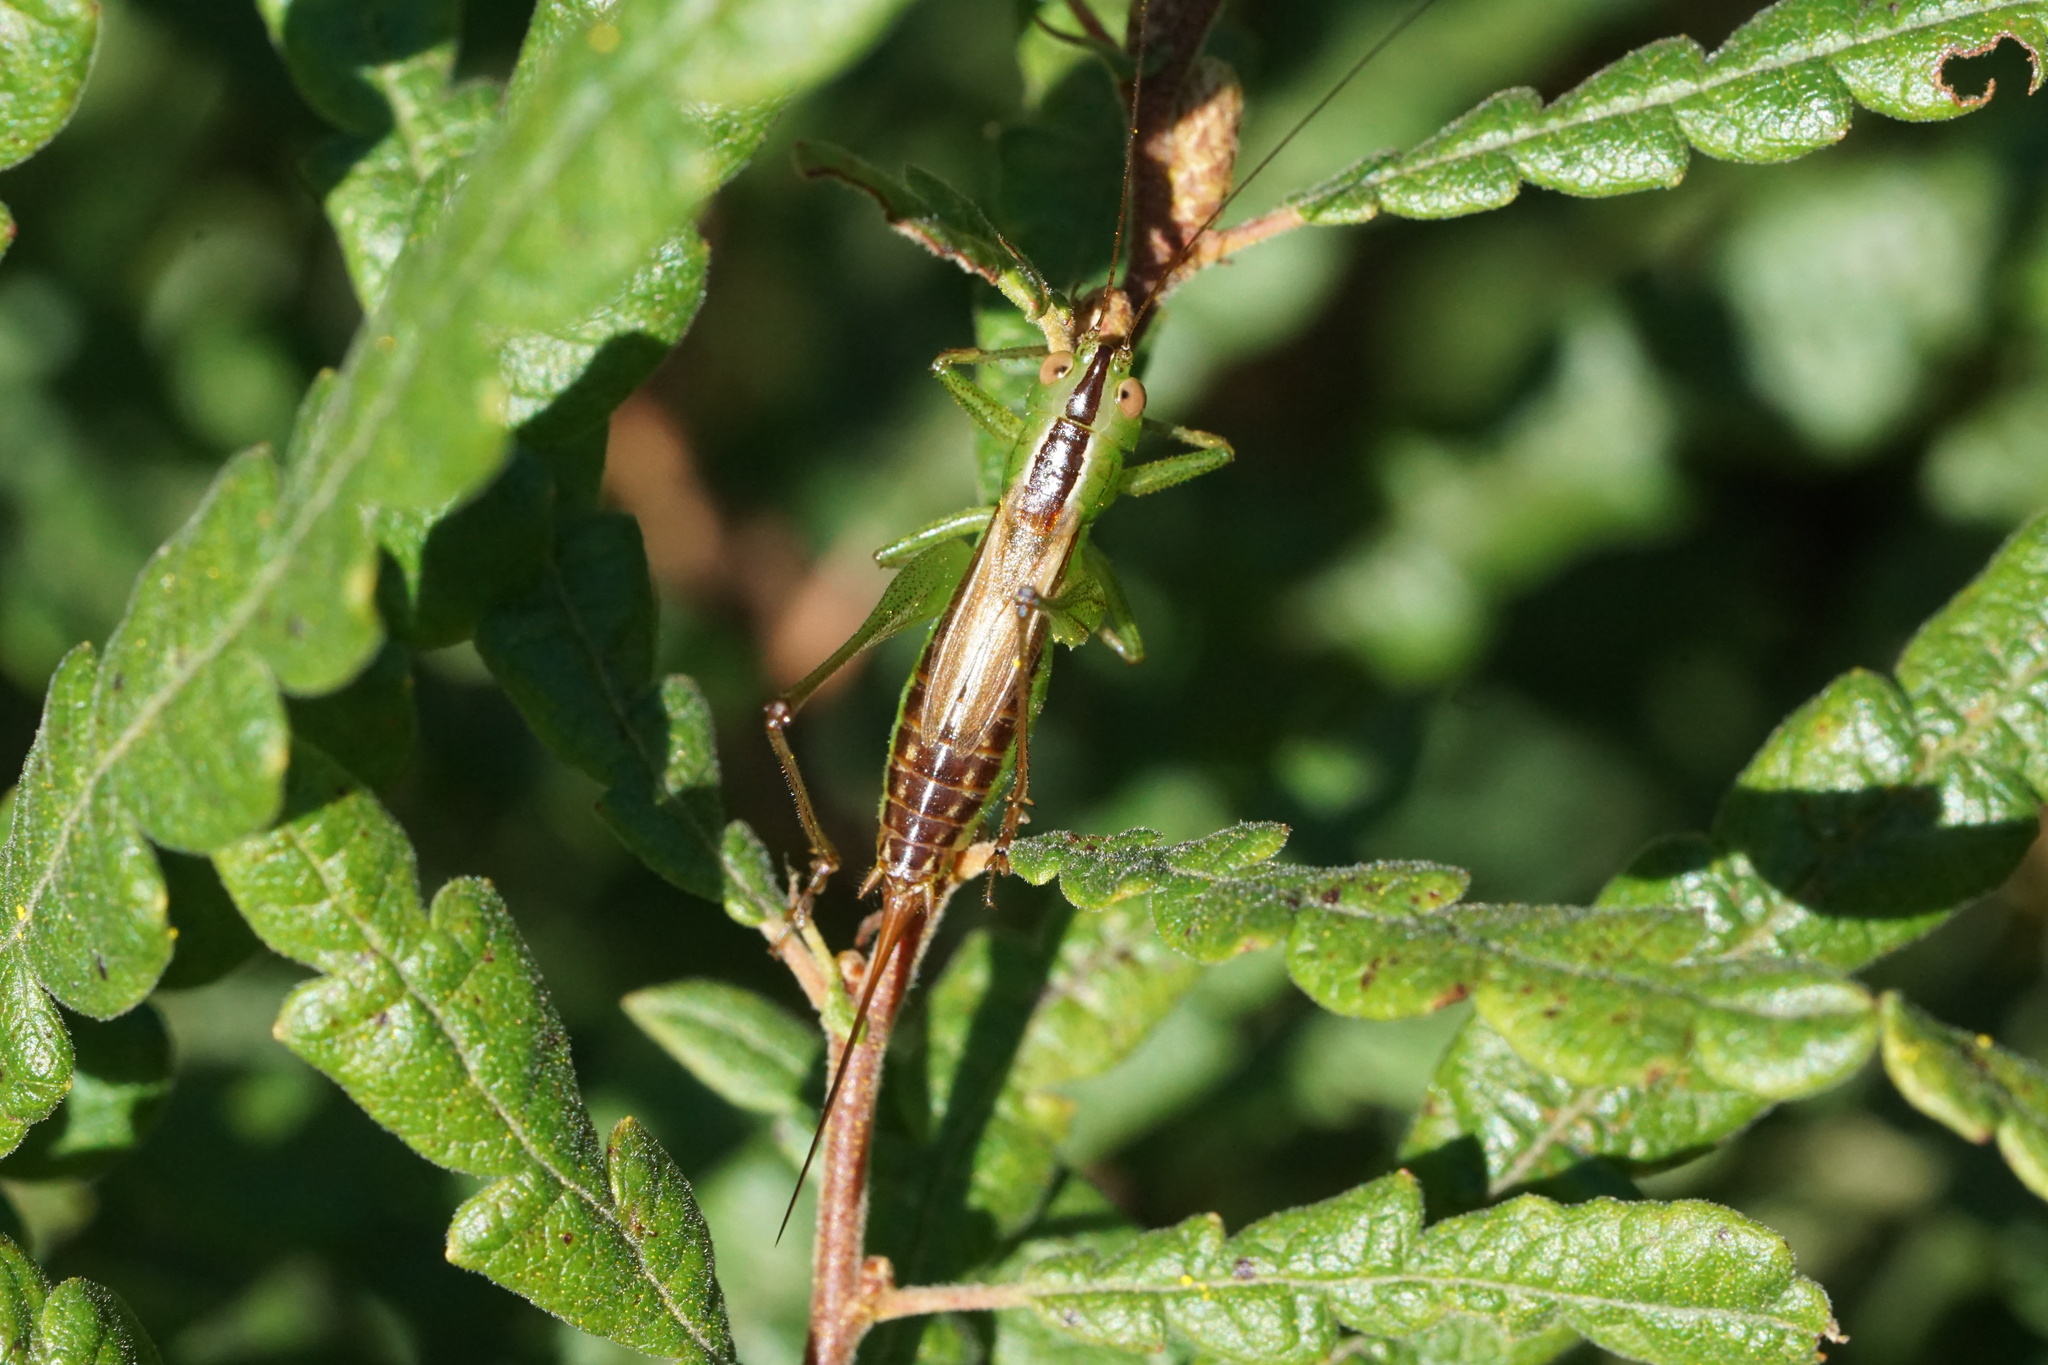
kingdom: Animalia
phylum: Arthropoda
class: Insecta
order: Orthoptera
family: Tettigoniidae
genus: Conocephalus
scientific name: Conocephalus brevipennis
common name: Short-winged meadow katydid
